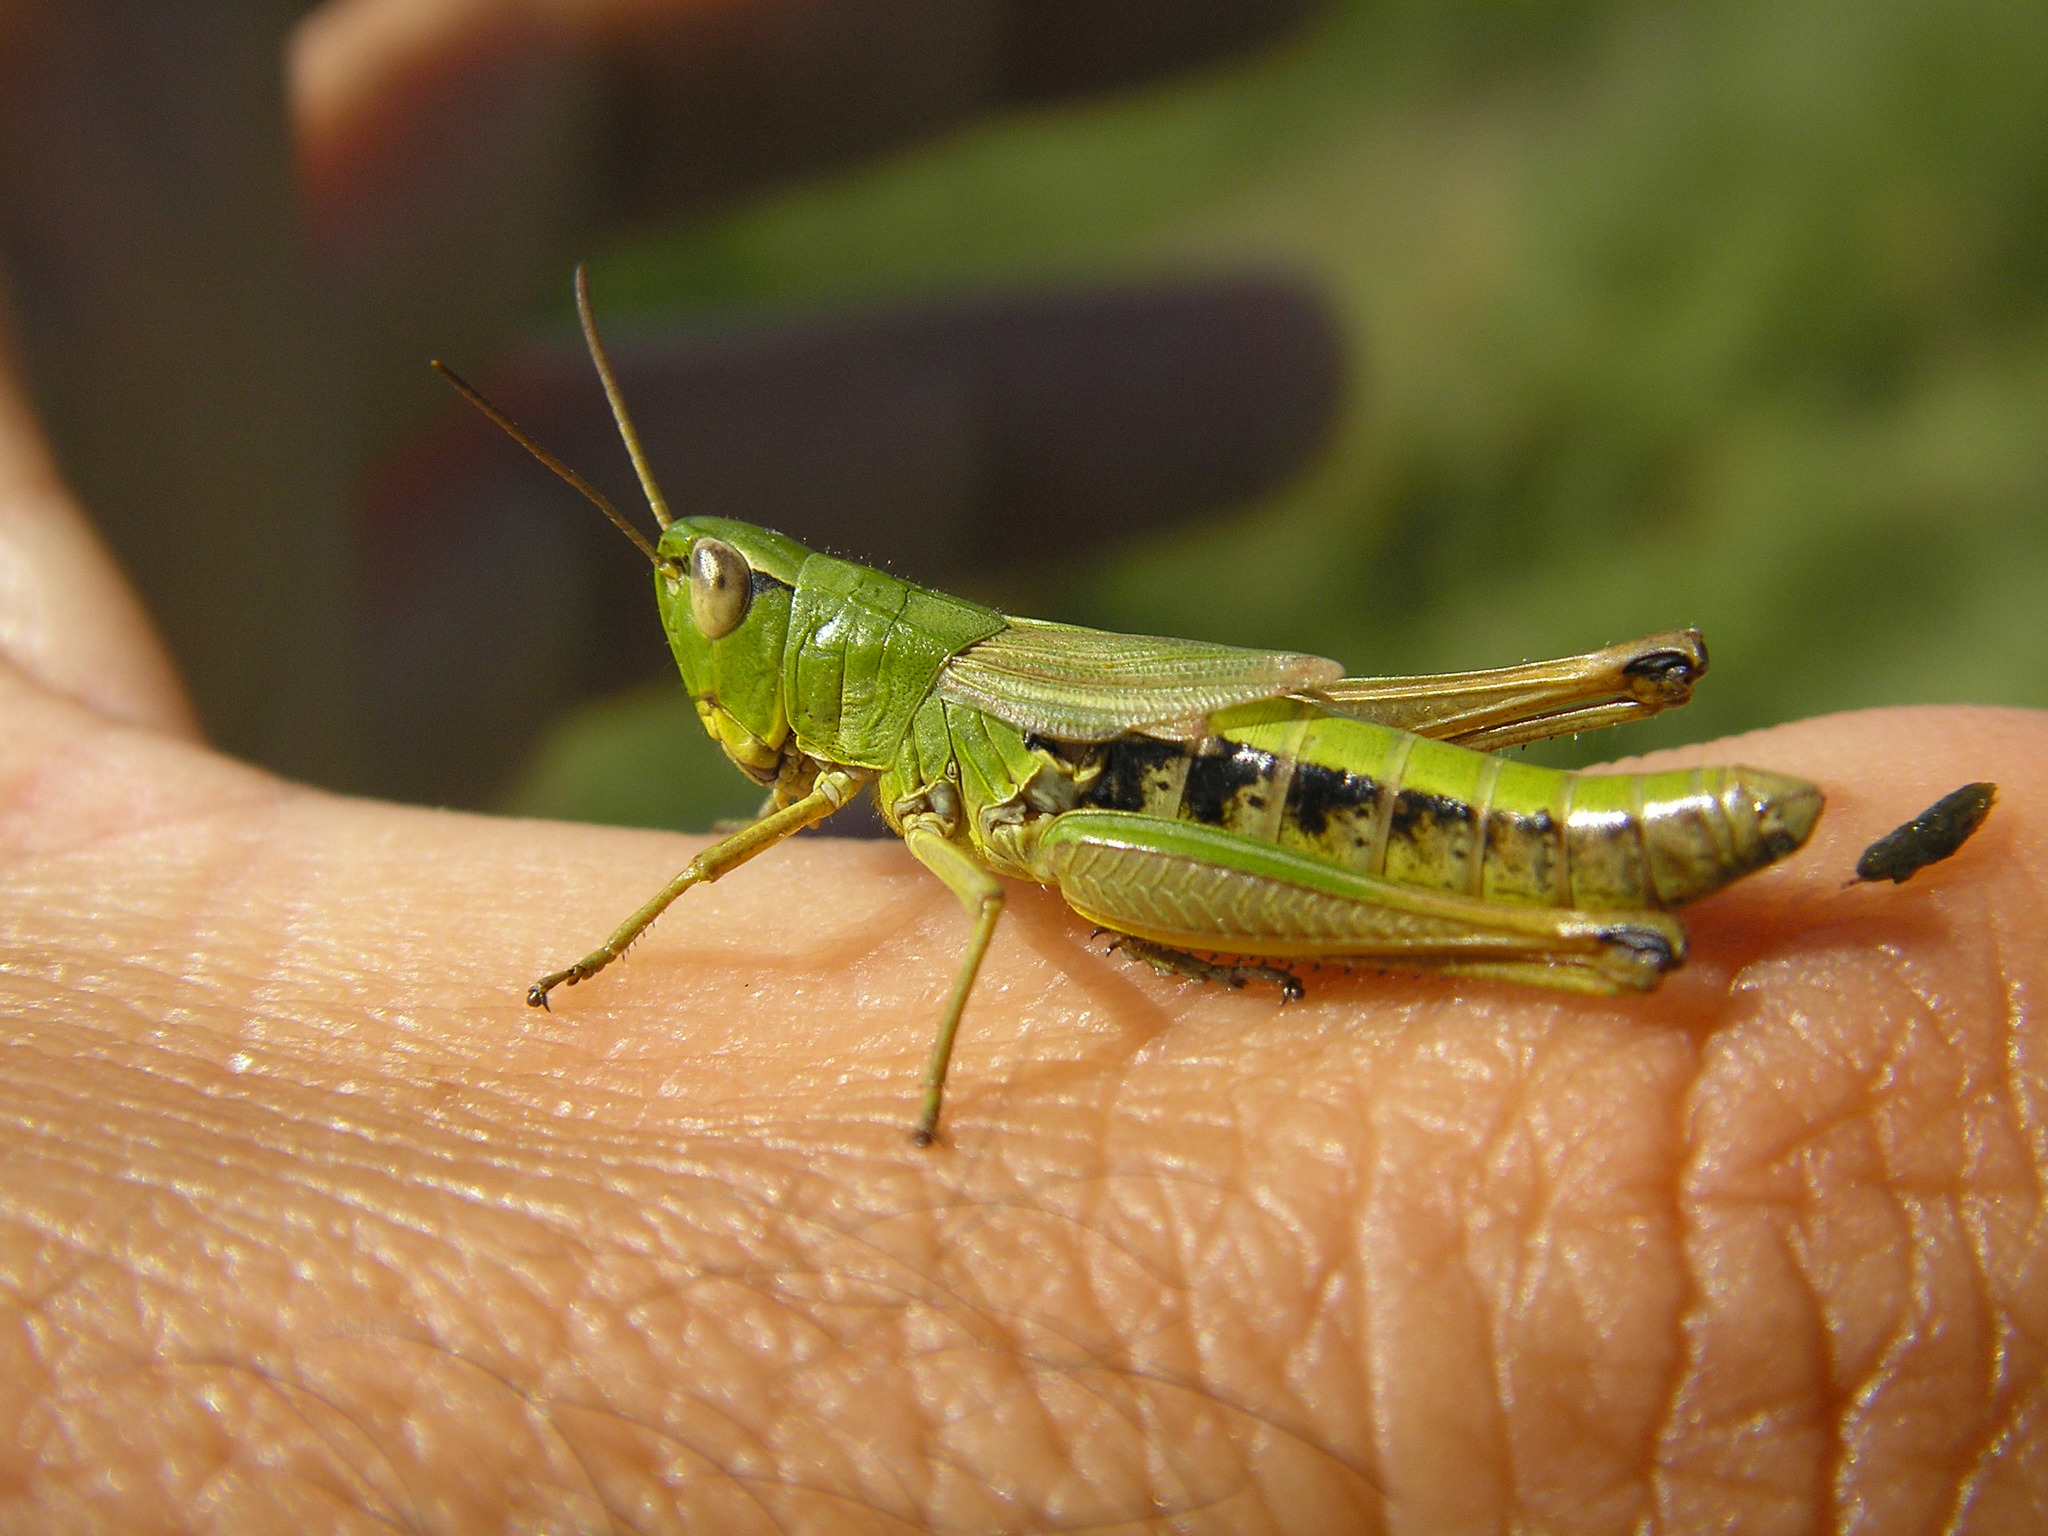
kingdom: Animalia
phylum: Arthropoda
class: Insecta
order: Orthoptera
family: Acrididae
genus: Pseudochorthippus
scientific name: Pseudochorthippus parallelus
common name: Meadow grasshopper
